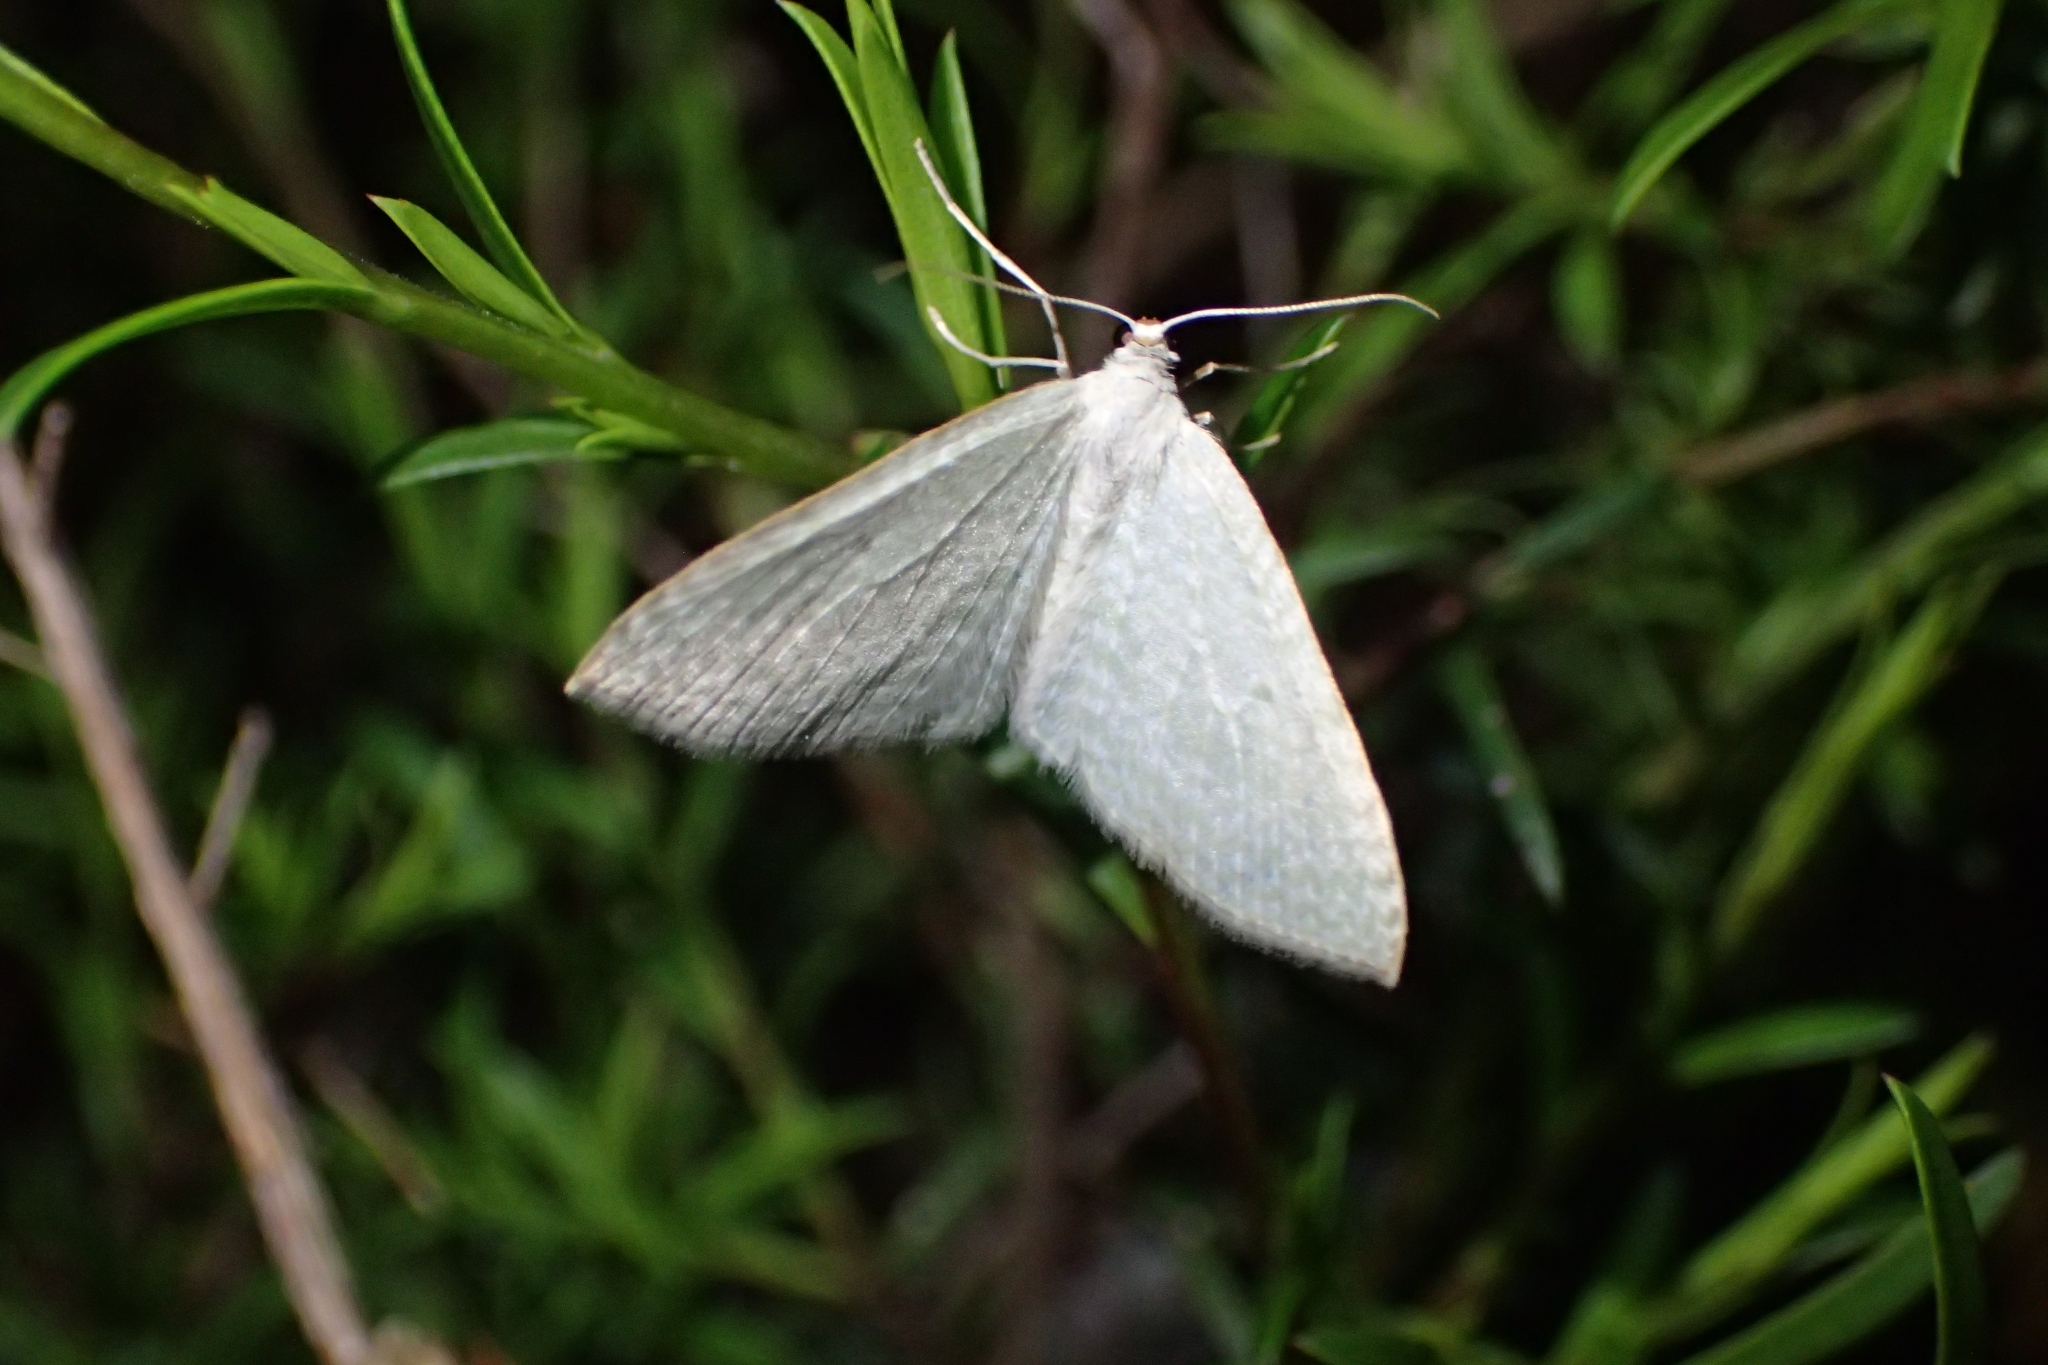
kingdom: Animalia
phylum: Arthropoda
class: Insecta
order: Lepidoptera
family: Geometridae
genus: Poecilasthena
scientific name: Poecilasthena pulchraria
